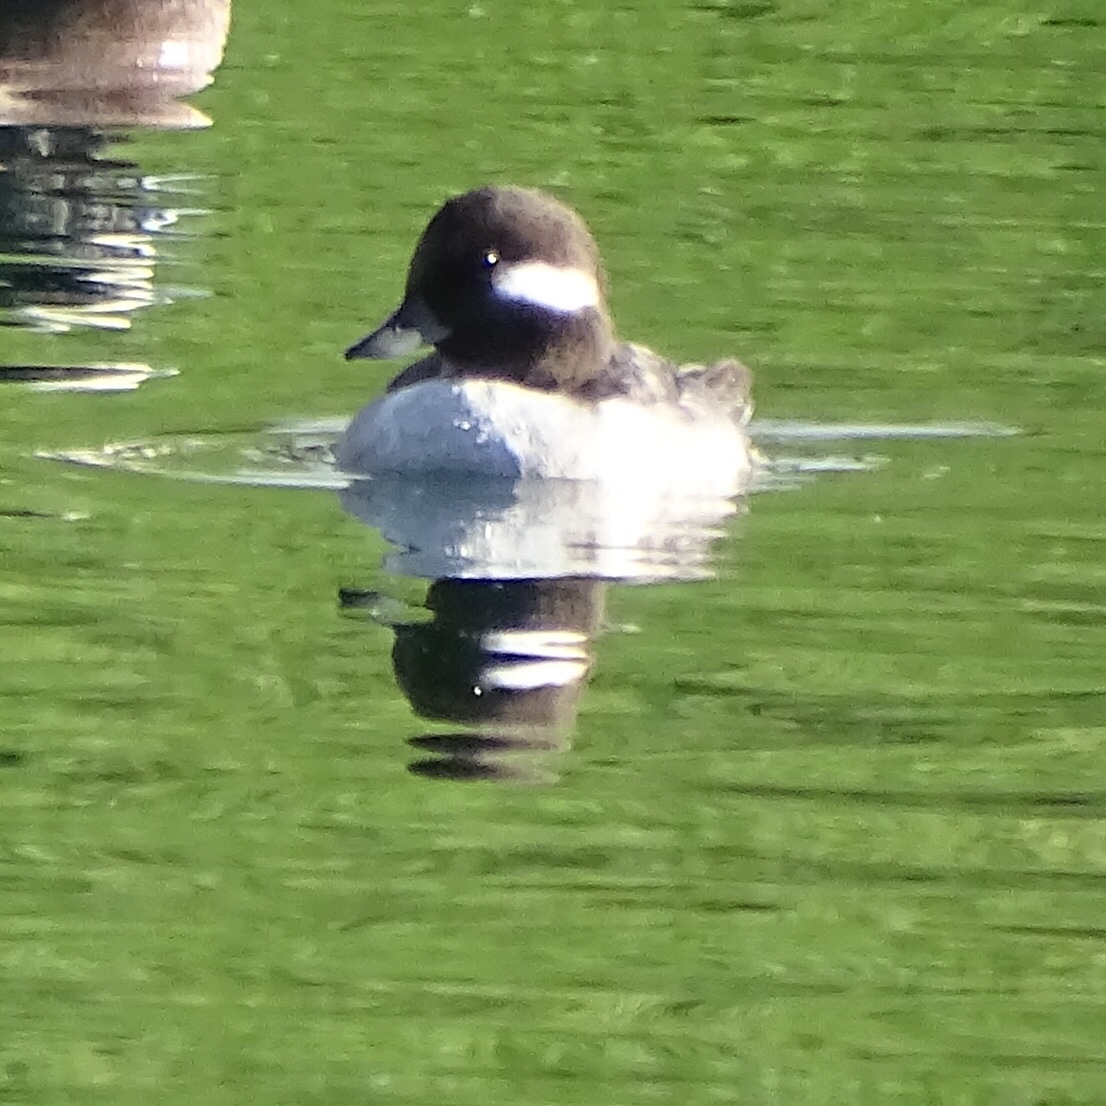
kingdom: Animalia
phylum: Chordata
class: Aves
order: Anseriformes
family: Anatidae
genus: Bucephala
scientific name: Bucephala albeola
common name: Bufflehead
